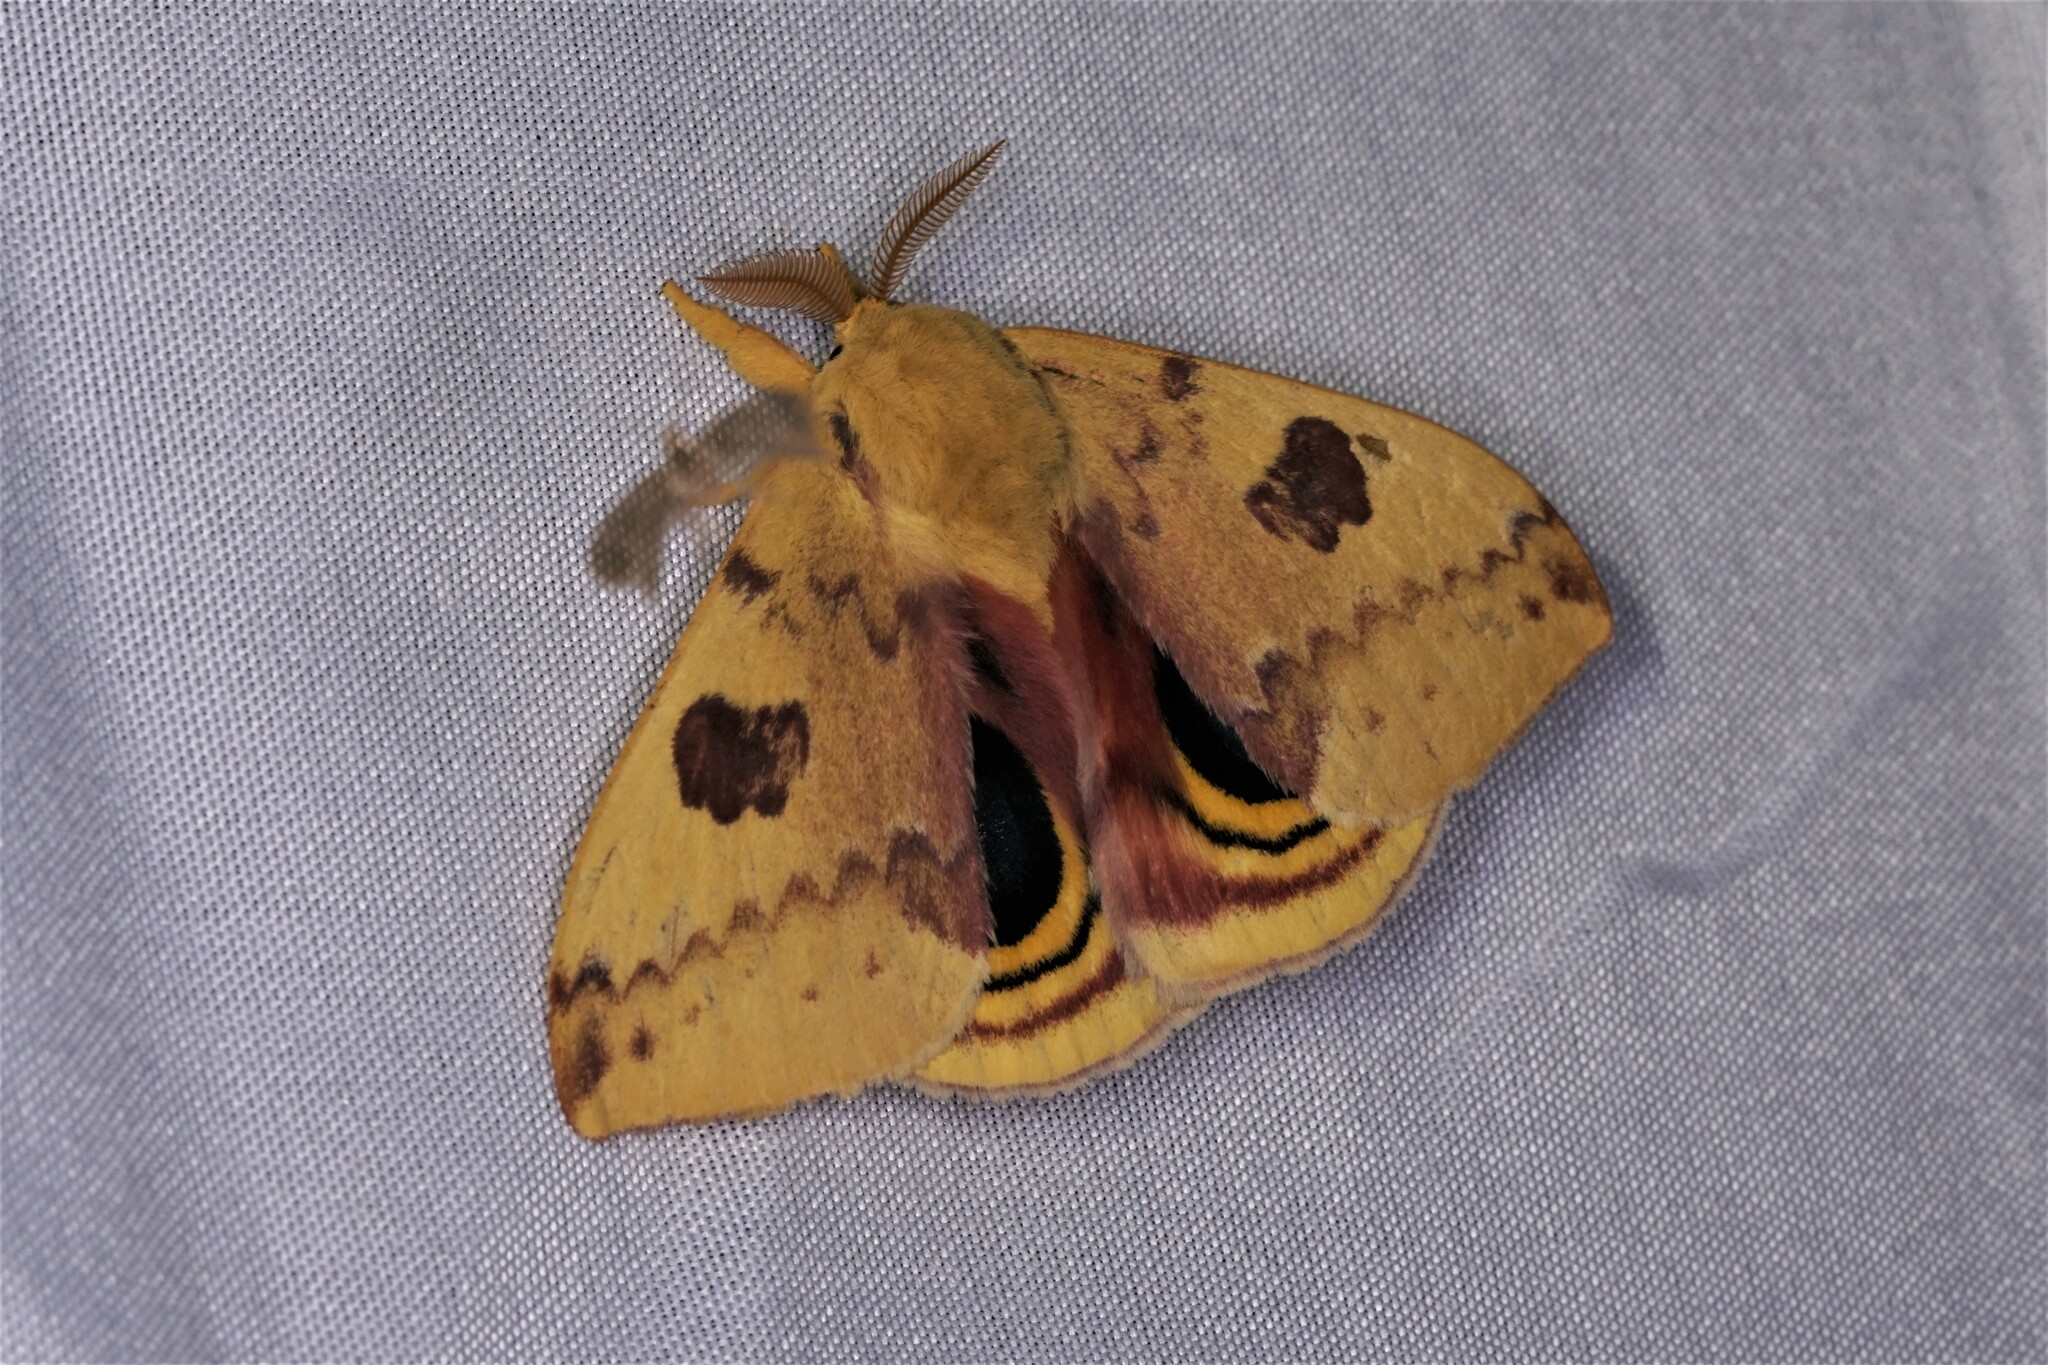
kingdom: Animalia
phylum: Arthropoda
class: Insecta
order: Lepidoptera
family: Saturniidae
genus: Automeris
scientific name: Automeris io
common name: Io moth
